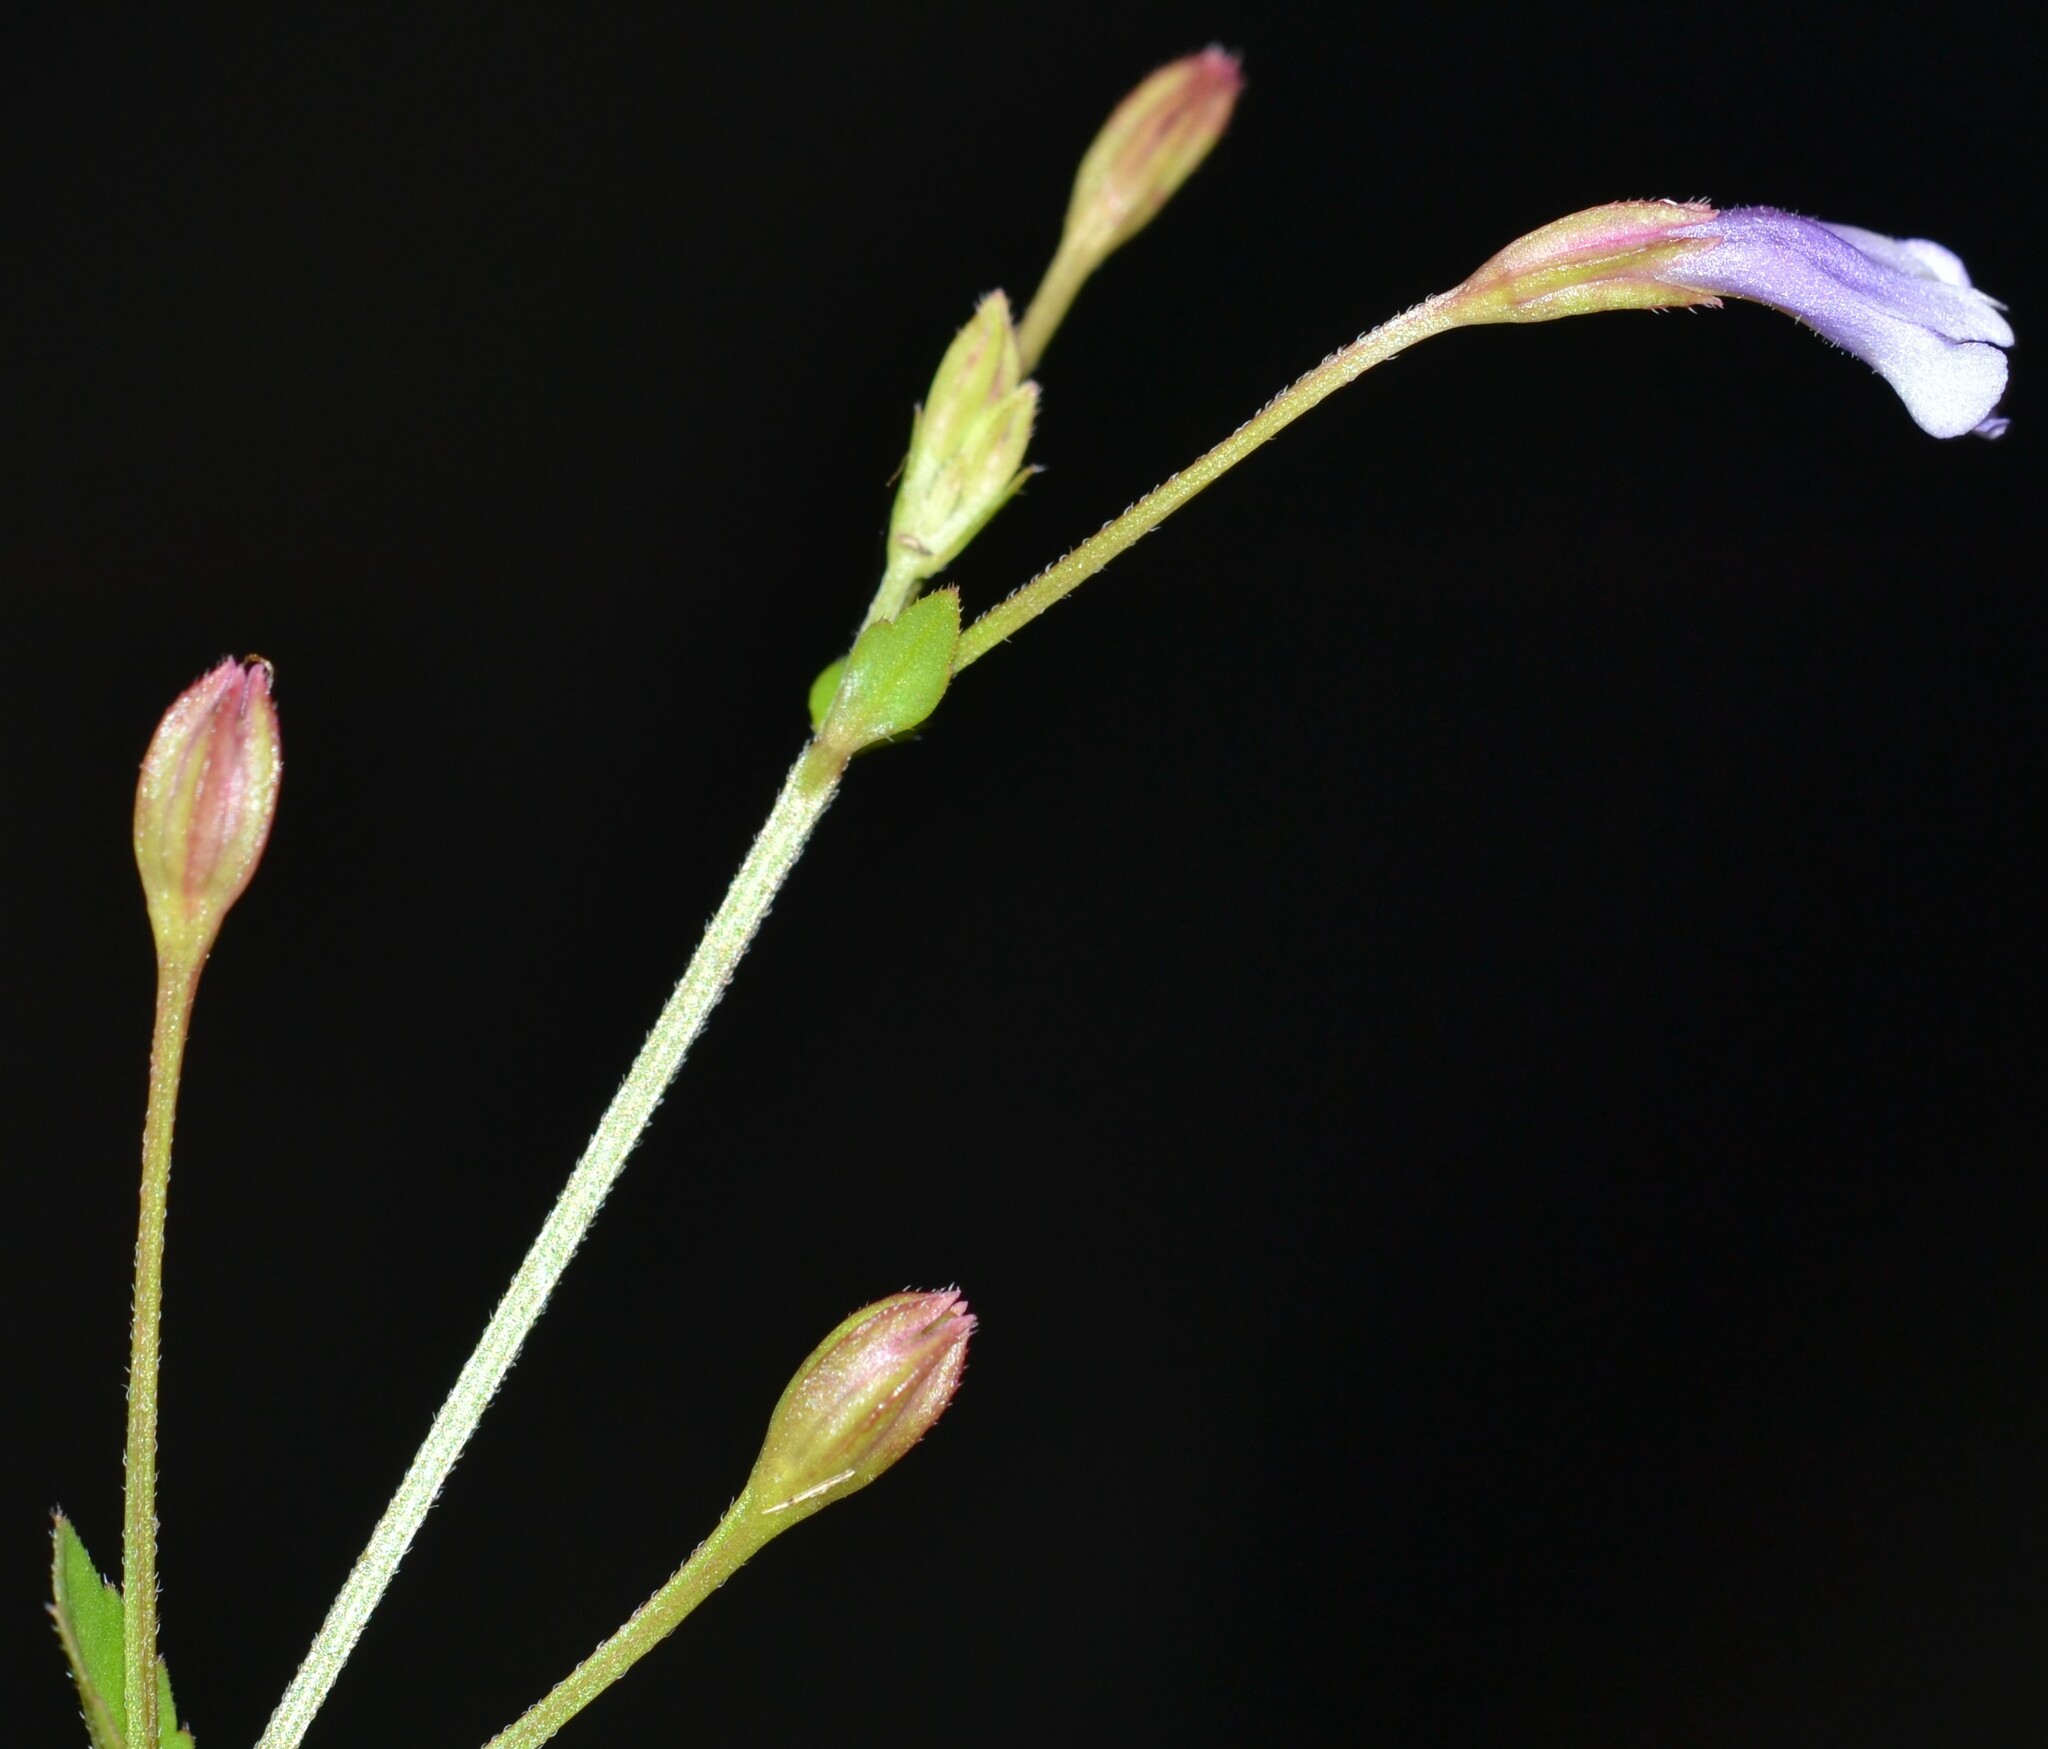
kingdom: Plantae
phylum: Tracheophyta
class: Magnoliopsida
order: Lamiales
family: Linderniaceae
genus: Torenia
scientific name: Torenia crustacea
